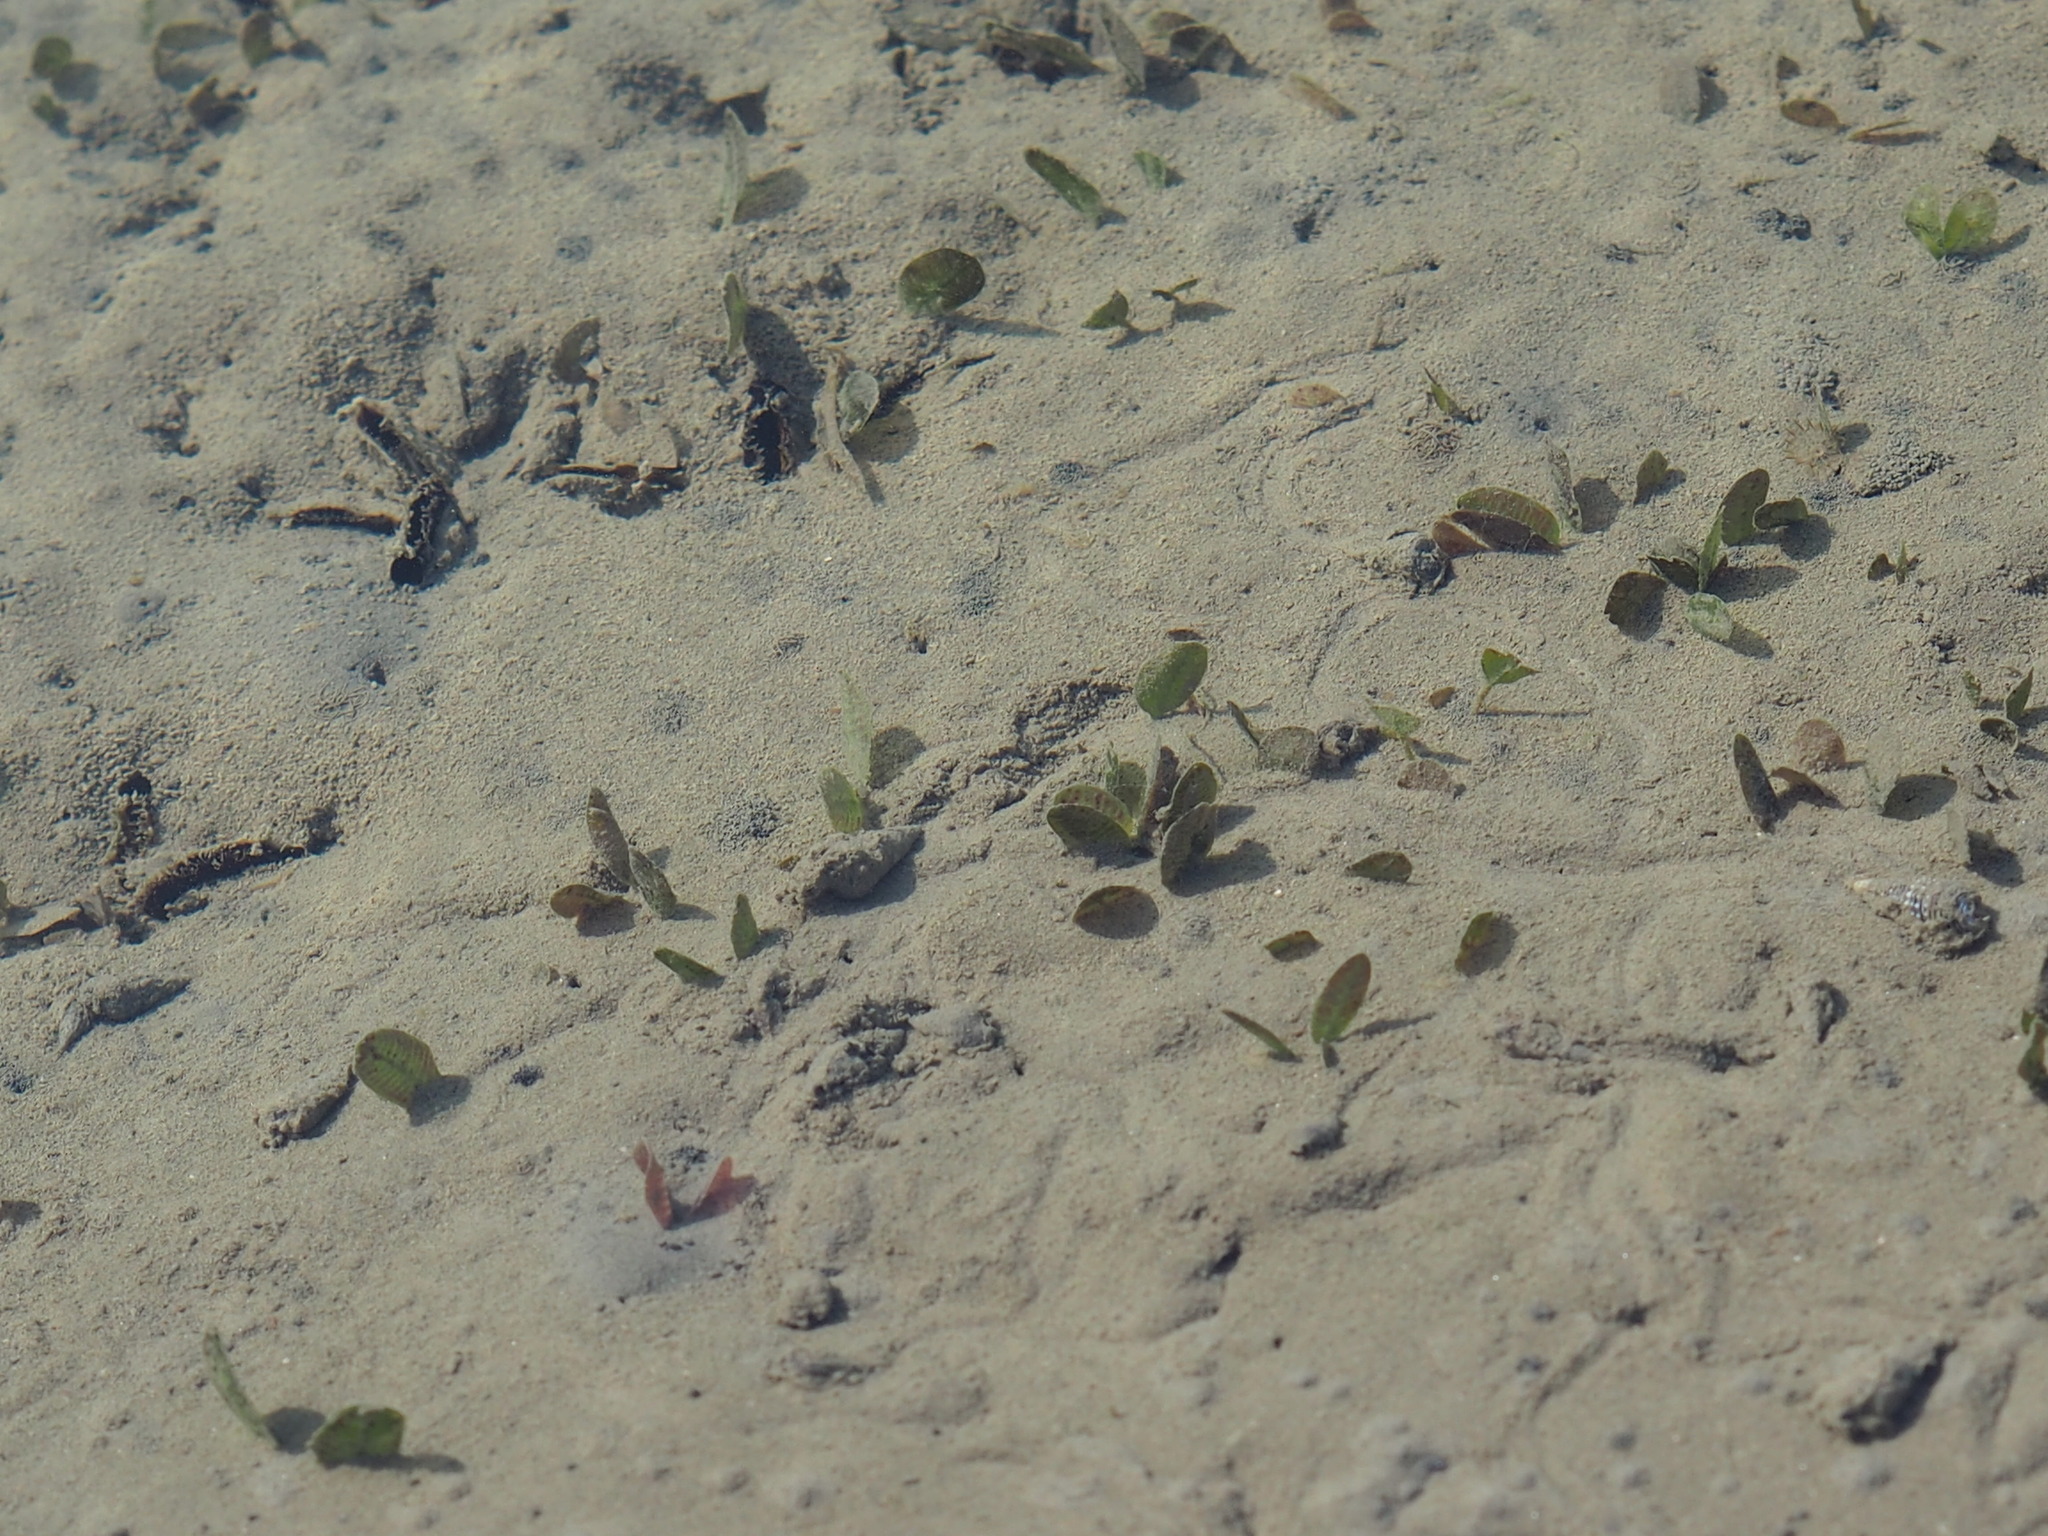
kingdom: Plantae
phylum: Tracheophyta
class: Liliopsida
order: Alismatales
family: Hydrocharitaceae
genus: Halophila
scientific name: Halophila ovalis
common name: Species code: ho
